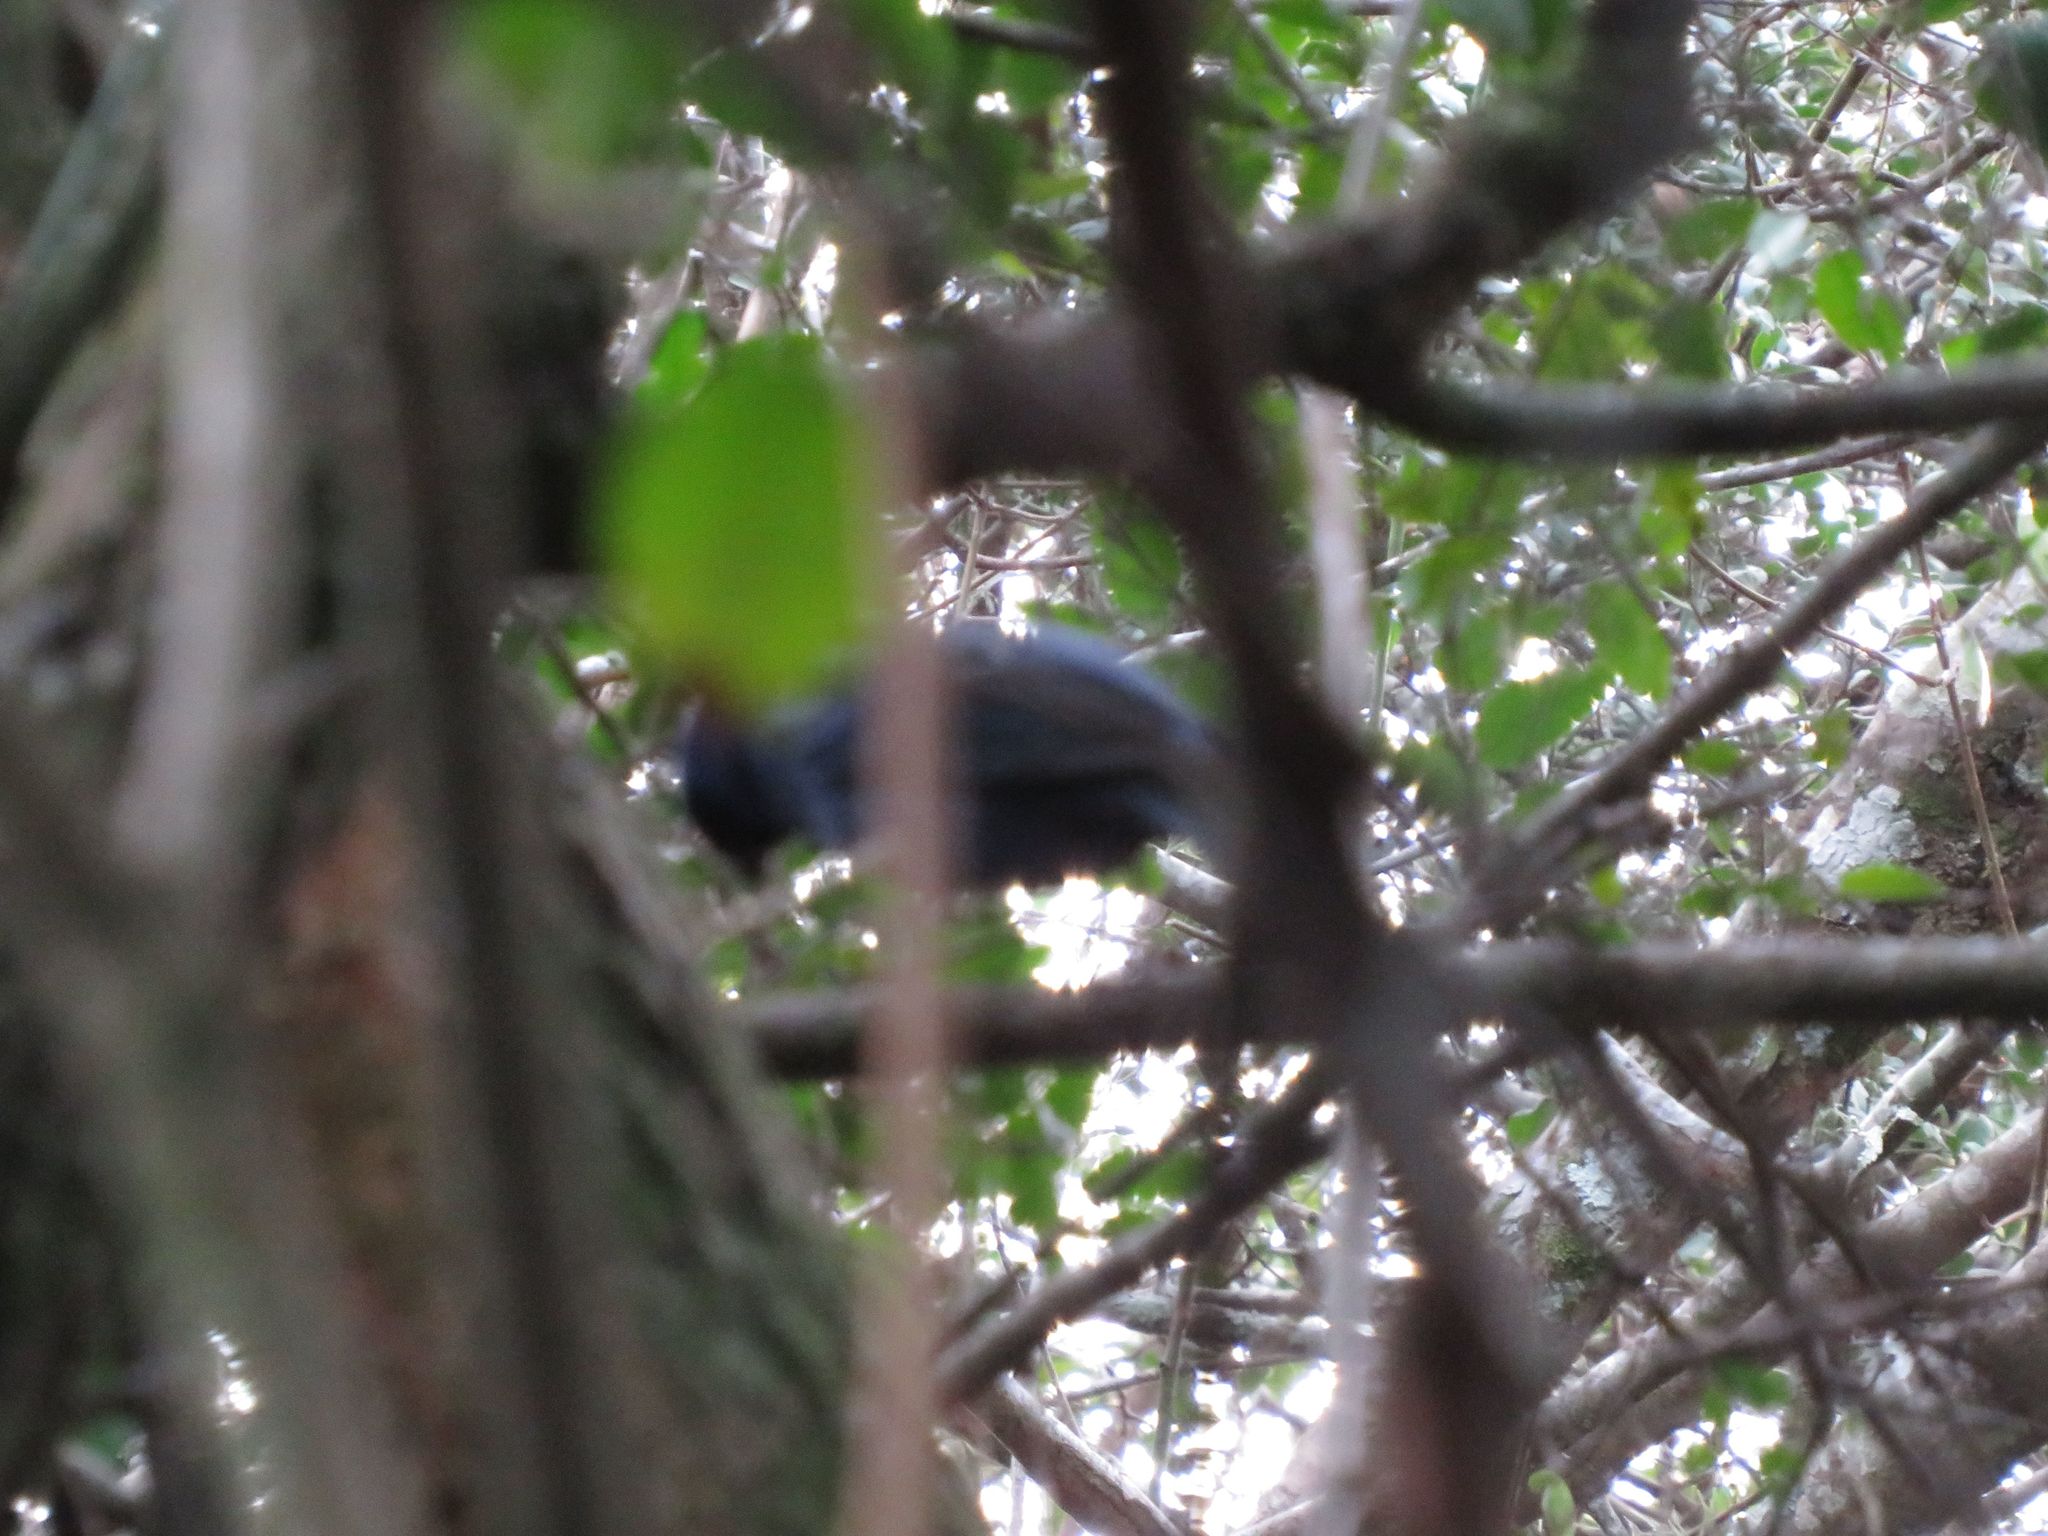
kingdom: Animalia
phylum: Chordata
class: Aves
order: Passeriformes
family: Thraupidae
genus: Stephanophorus
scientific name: Stephanophorus diadematus
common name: Diademed tanager
